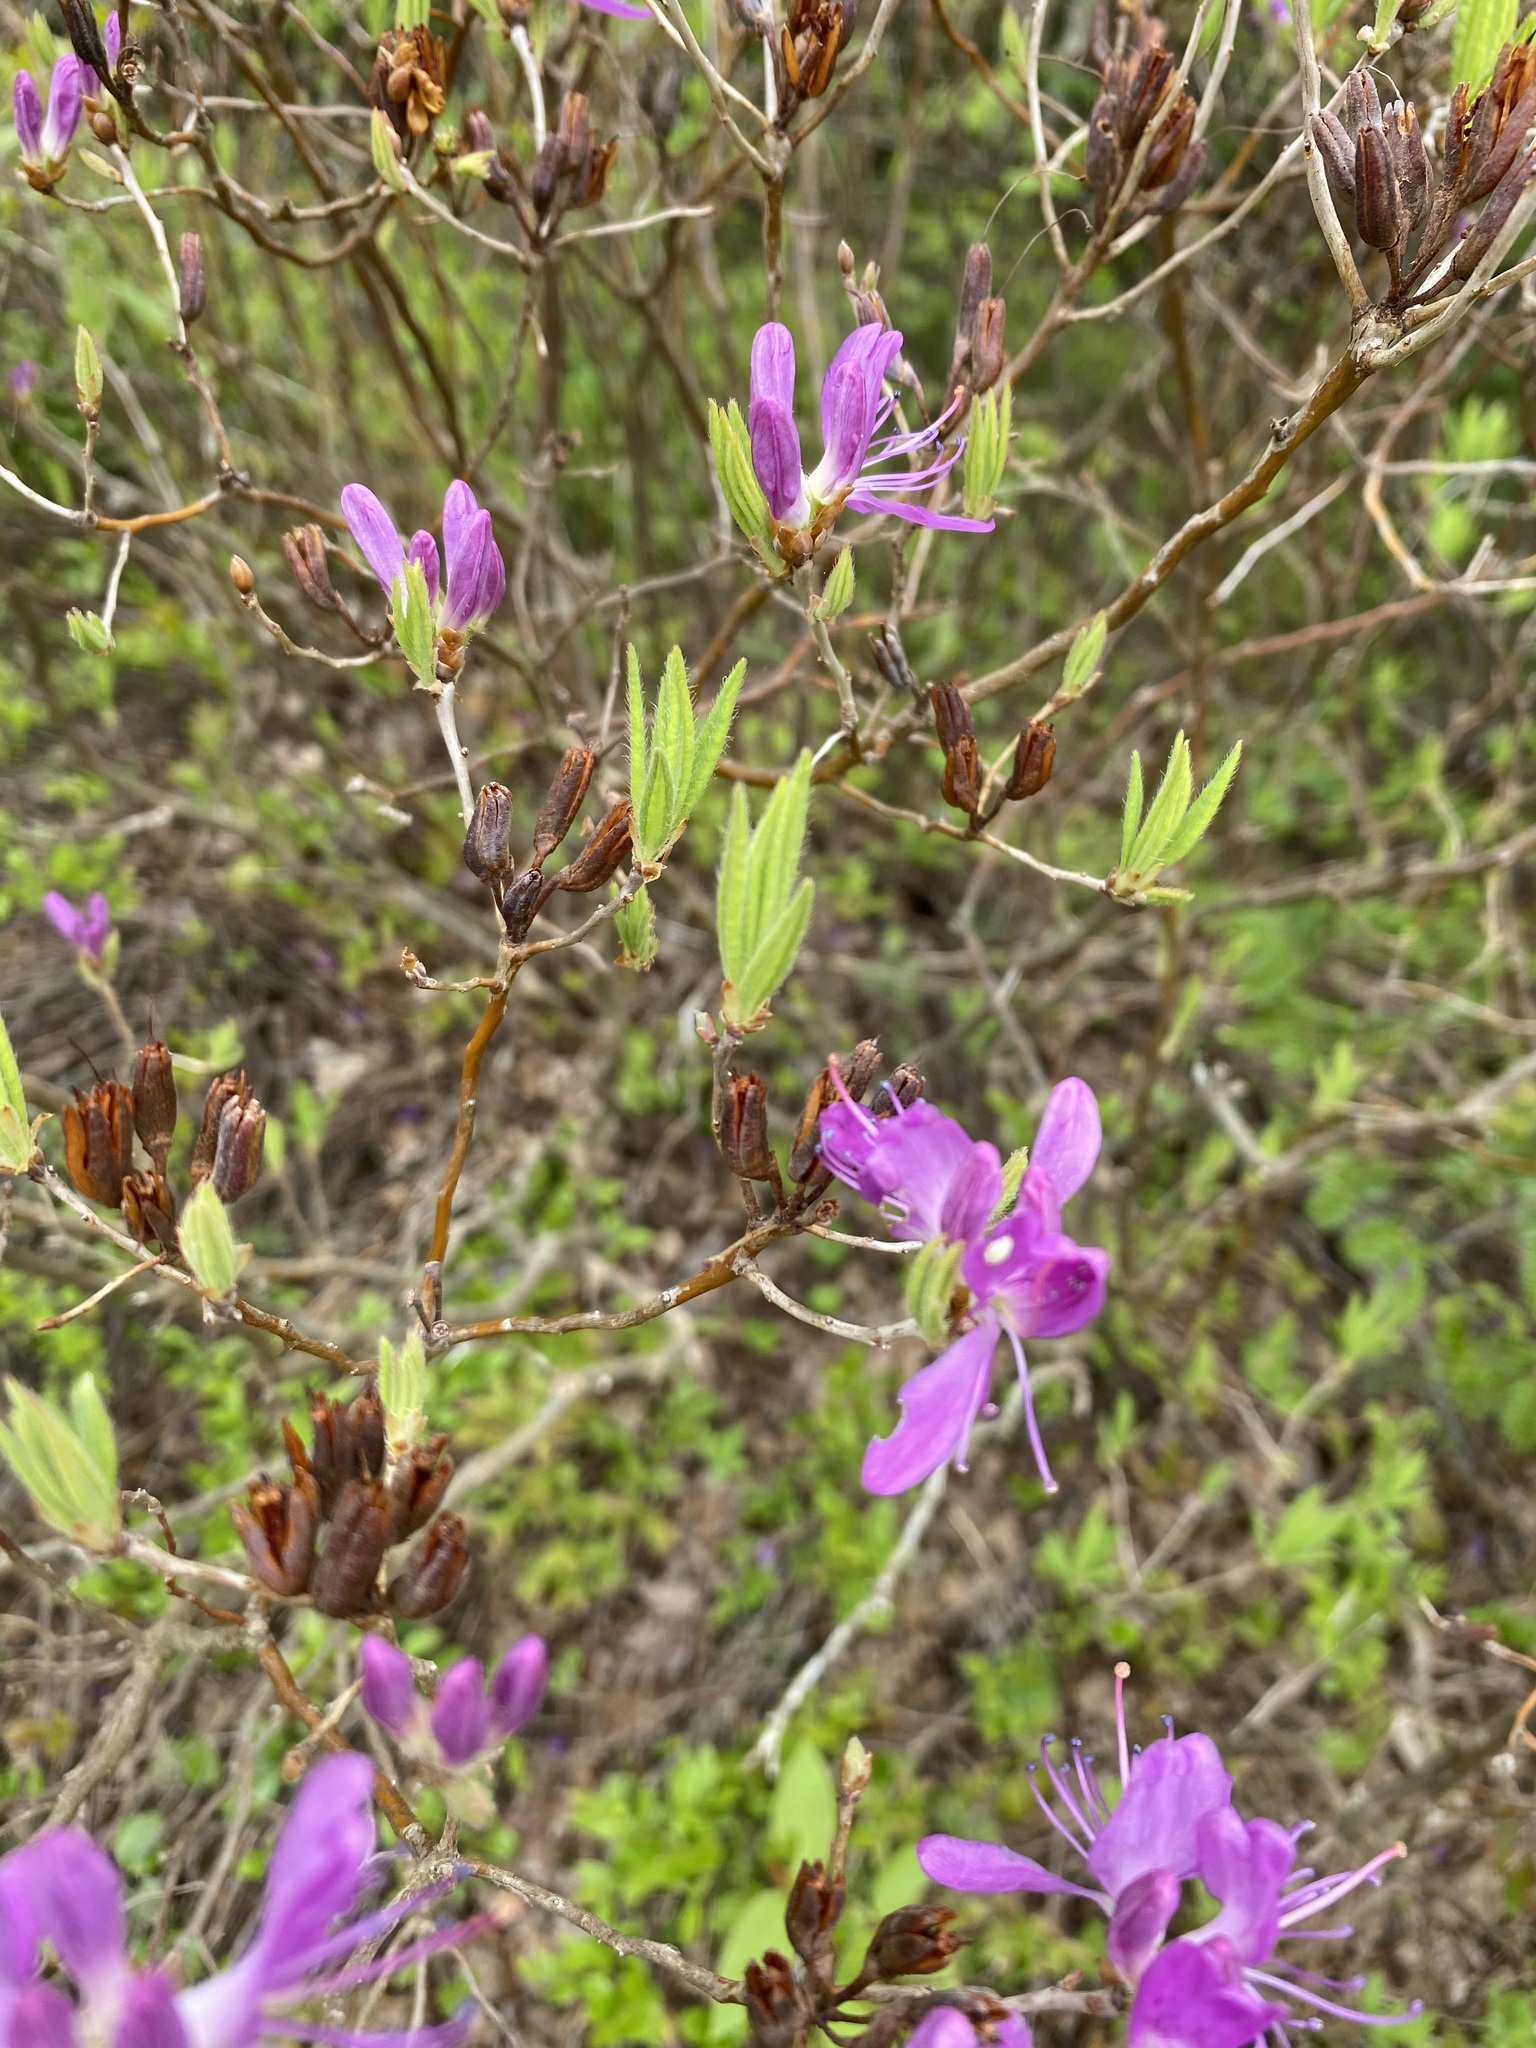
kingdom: Plantae
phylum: Tracheophyta
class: Magnoliopsida
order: Ericales
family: Ericaceae
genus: Rhododendron
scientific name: Rhododendron canadense
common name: Rhodora
